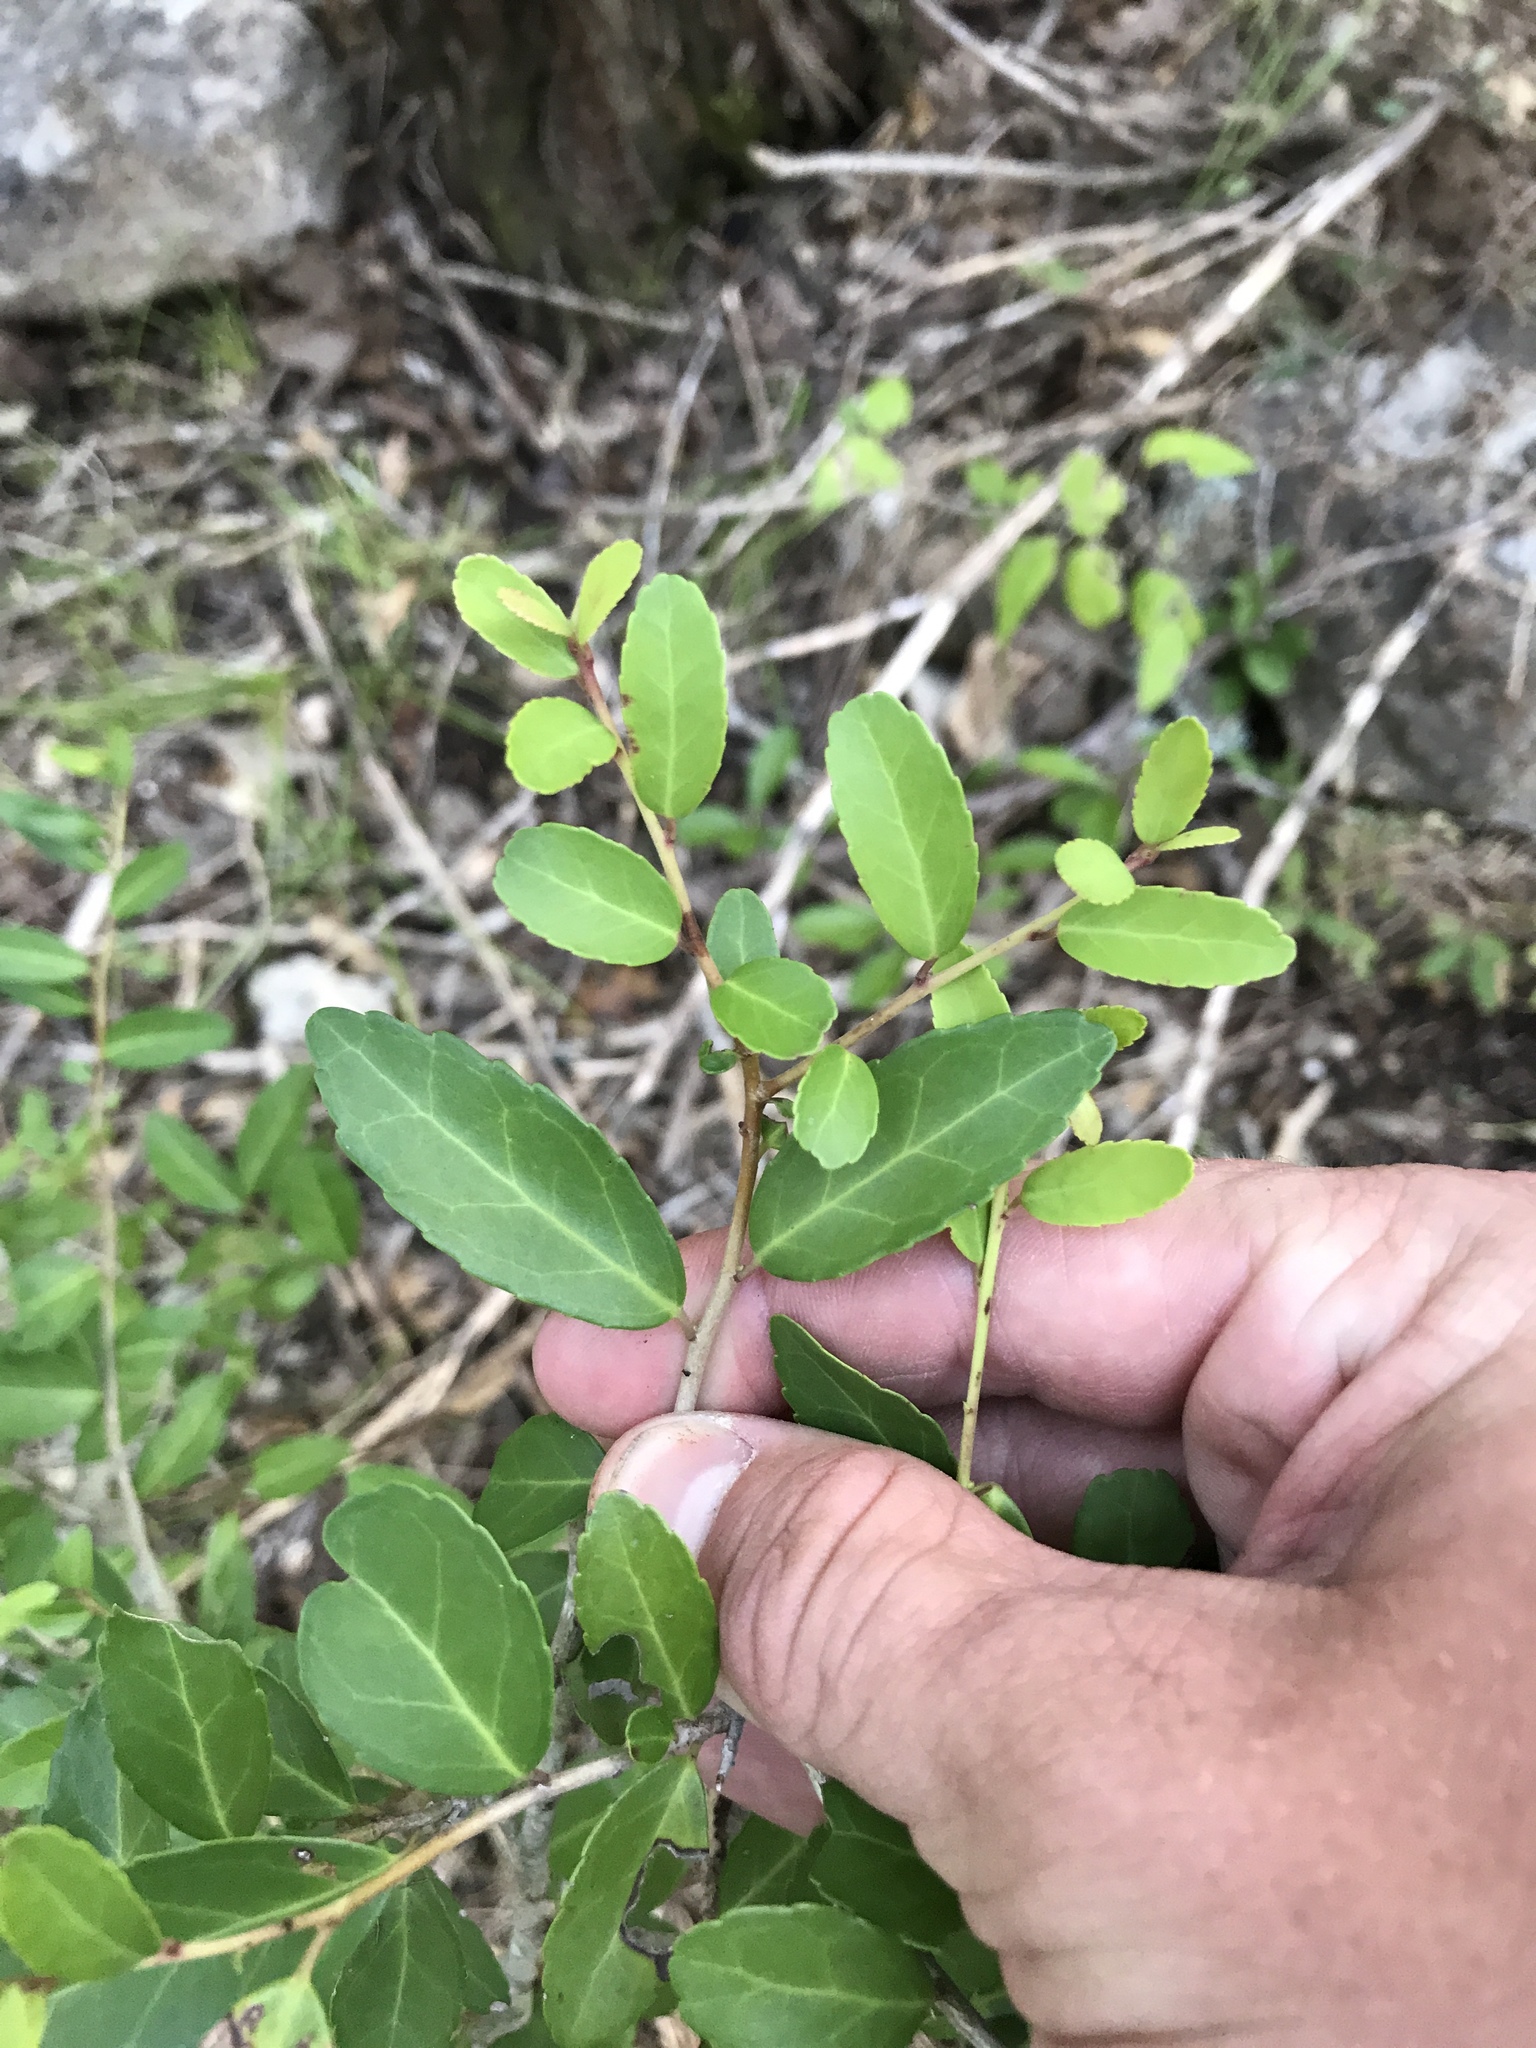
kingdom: Plantae
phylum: Tracheophyta
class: Magnoliopsida
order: Aquifoliales
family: Aquifoliaceae
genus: Ilex
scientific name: Ilex vomitoria
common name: Yaupon holly
